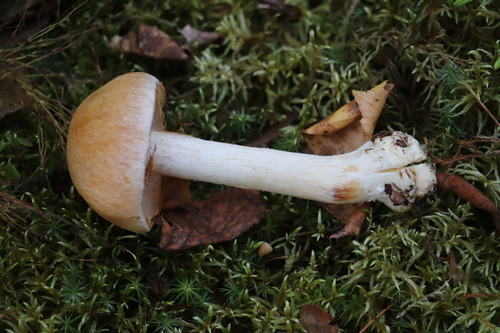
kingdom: Fungi
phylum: Basidiomycota
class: Agaricomycetes
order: Agaricales
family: Cortinariaceae
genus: Cortinarius
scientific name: Cortinarius
